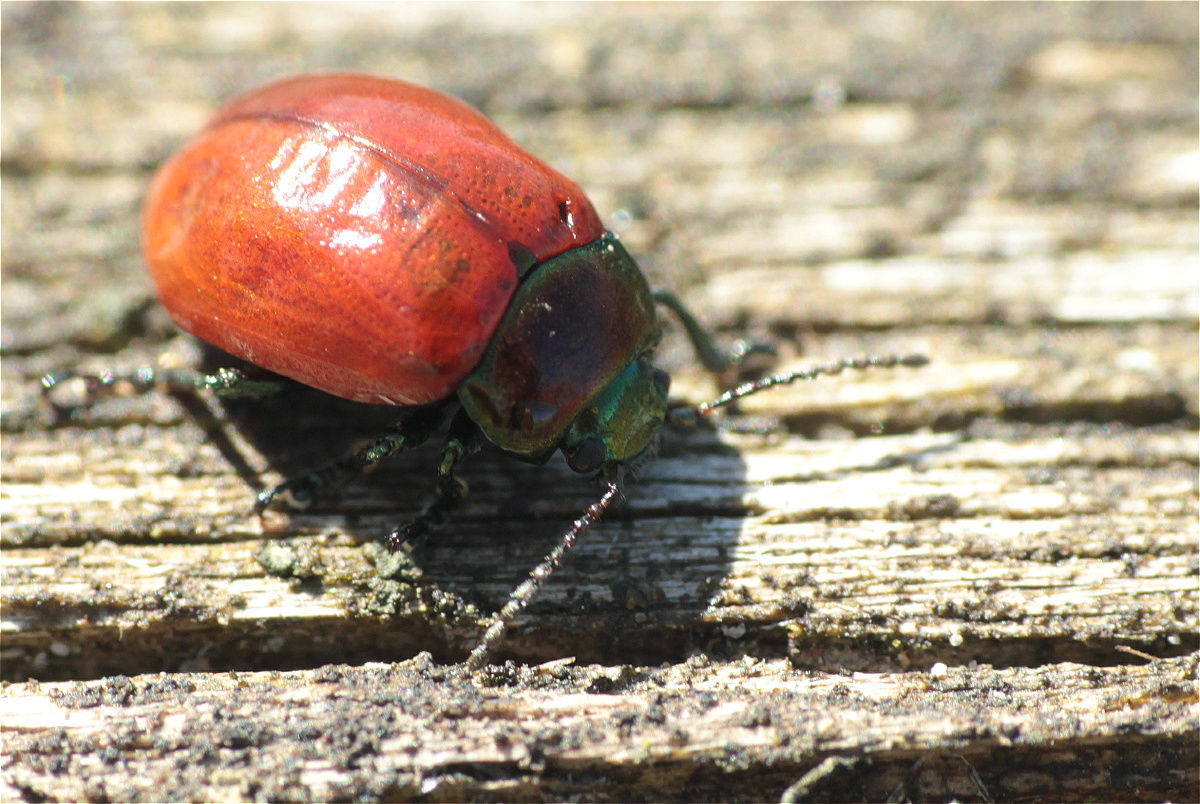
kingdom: Animalia
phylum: Arthropoda
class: Insecta
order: Coleoptera
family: Chrysomelidae
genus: Chrysomela
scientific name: Chrysomela polita
